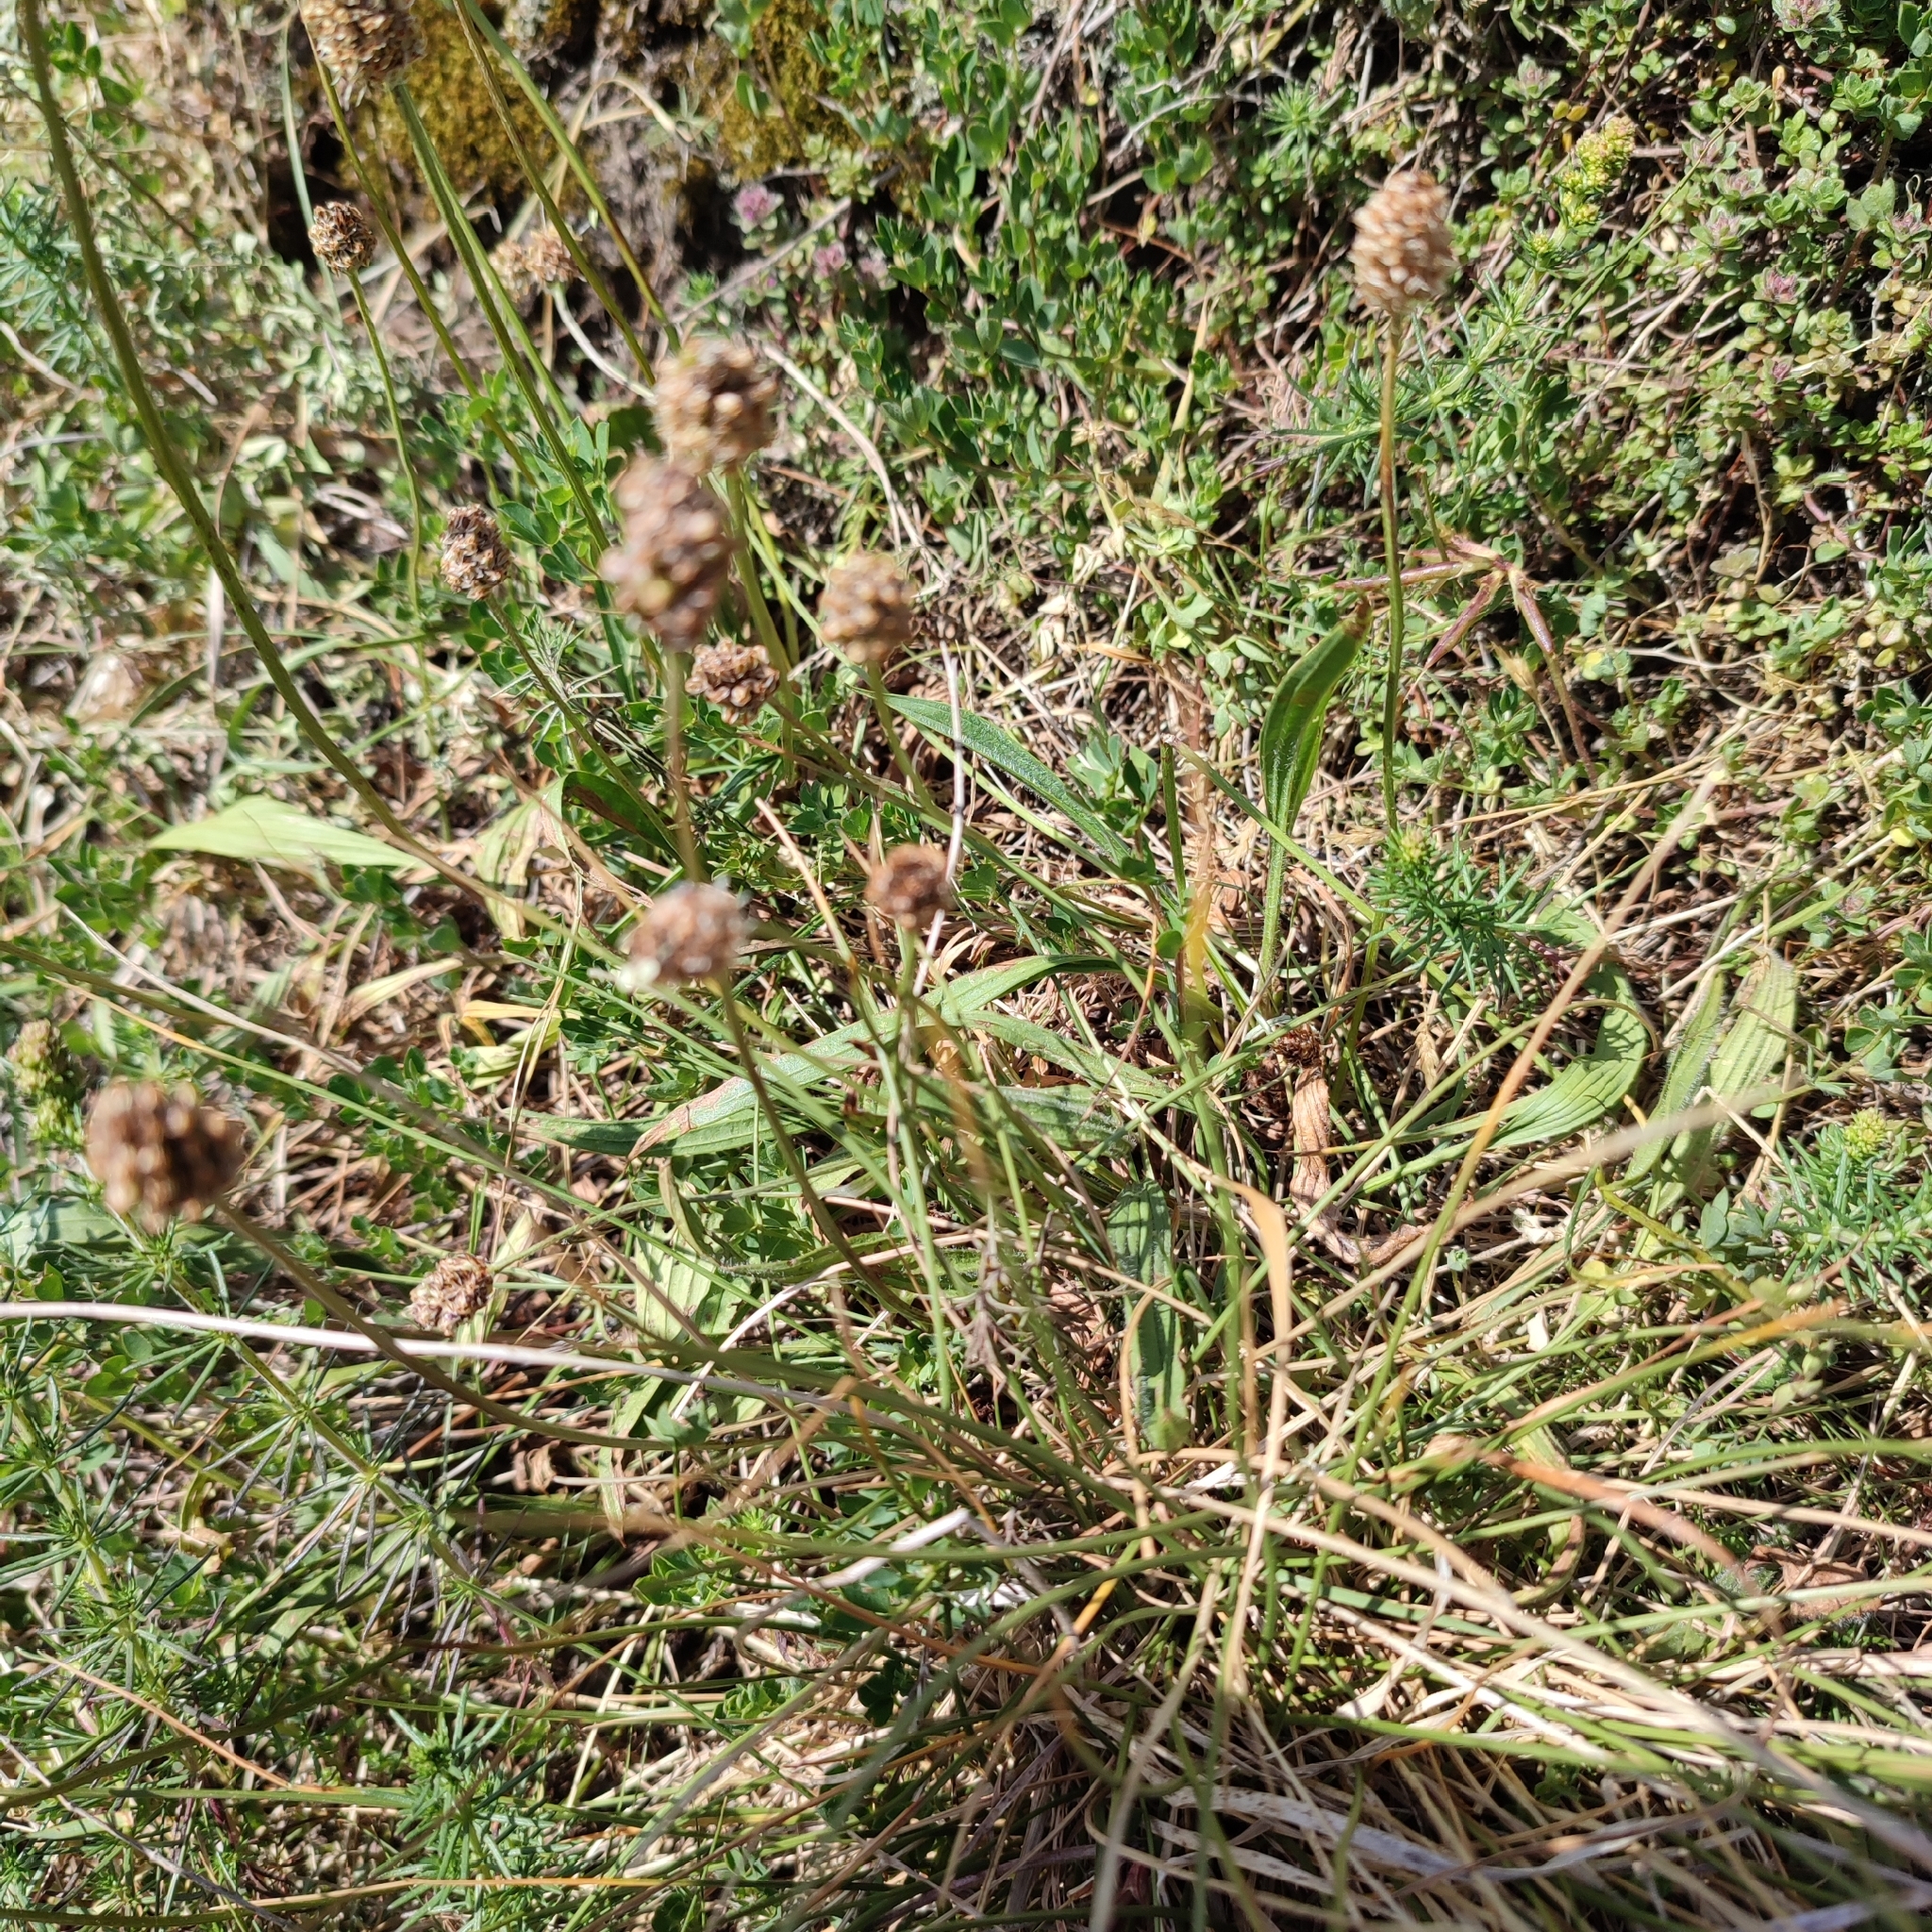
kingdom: Plantae
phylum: Tracheophyta
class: Magnoliopsida
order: Lamiales
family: Plantaginaceae
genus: Plantago
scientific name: Plantago lanceolata
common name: Ribwort plantain
